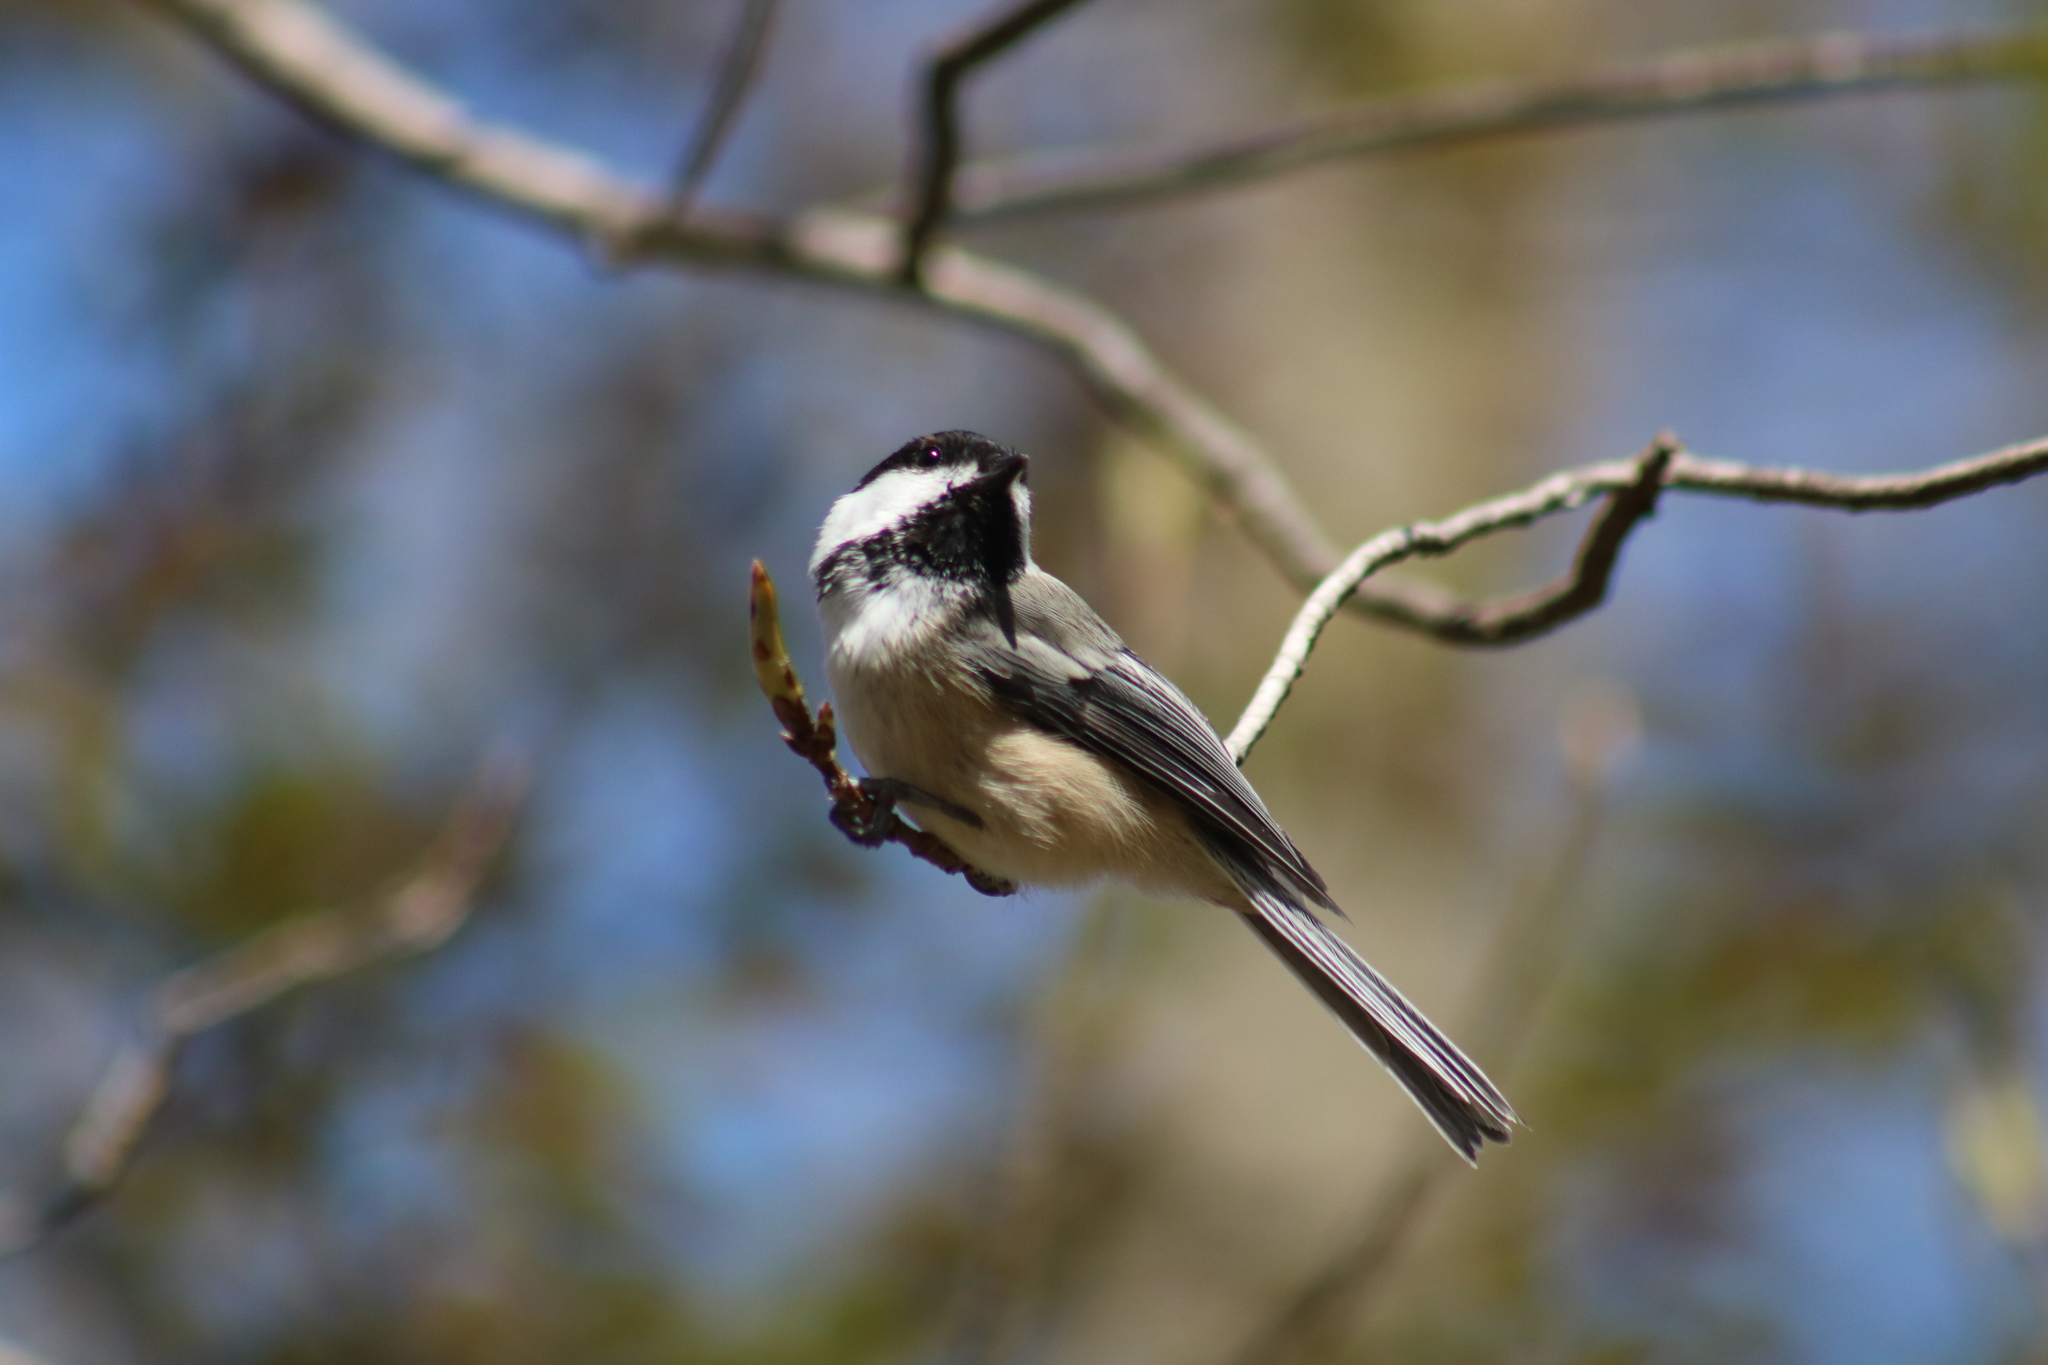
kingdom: Animalia
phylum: Chordata
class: Aves
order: Passeriformes
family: Paridae
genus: Poecile
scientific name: Poecile atricapillus
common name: Black-capped chickadee
